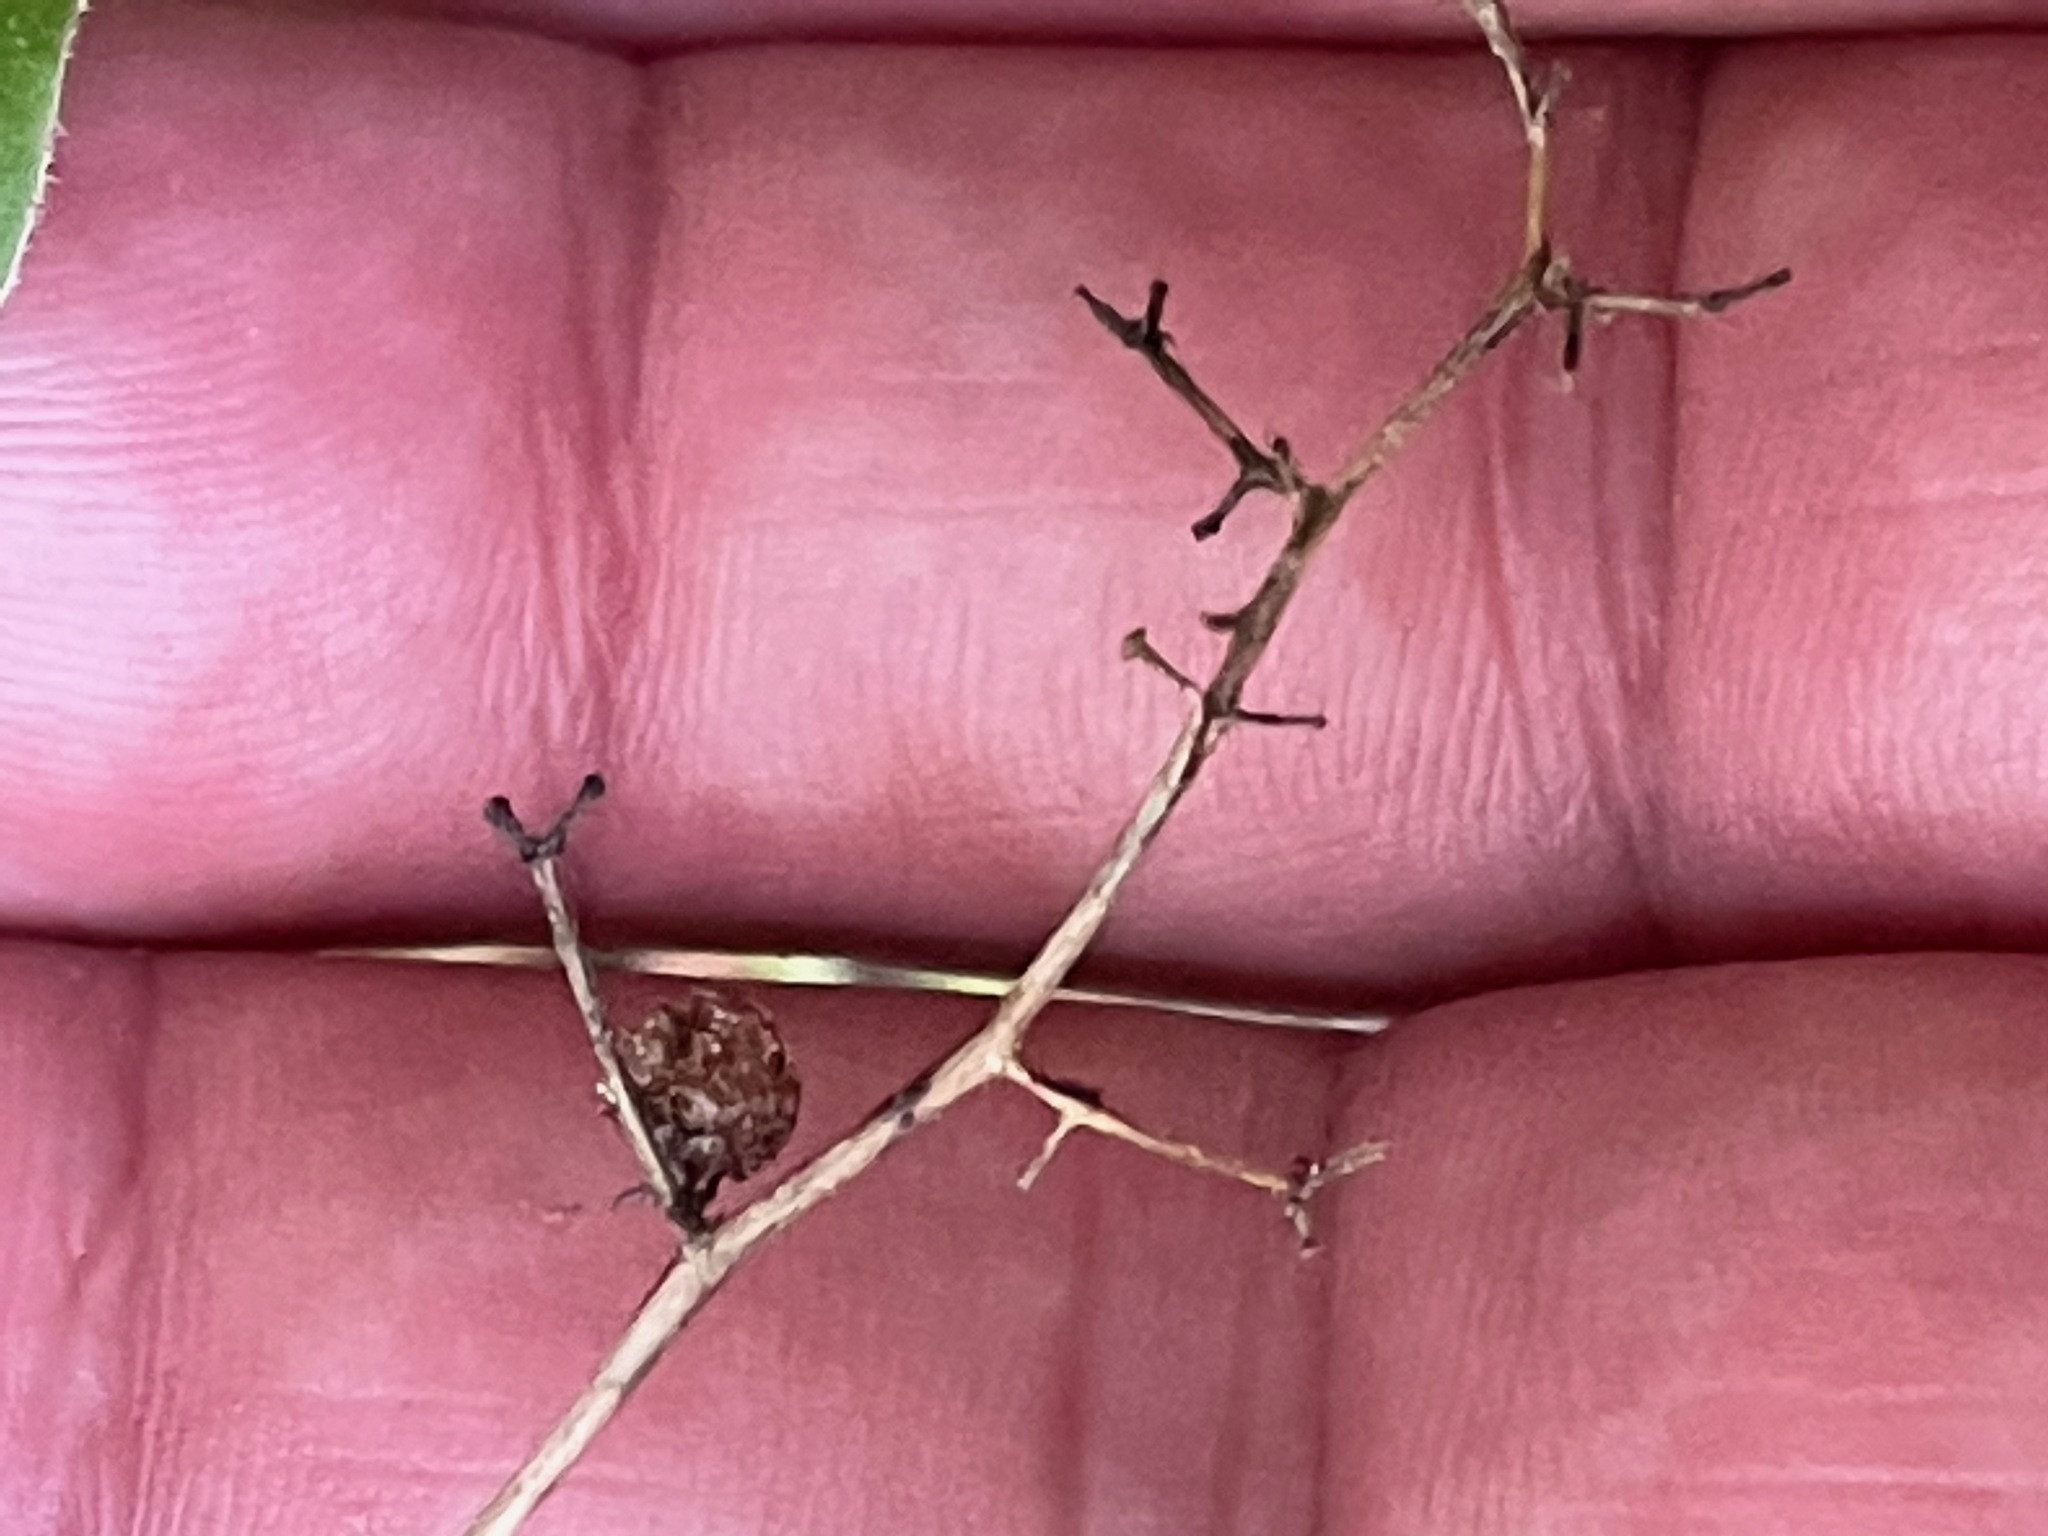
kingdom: Plantae
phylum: Tracheophyta
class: Liliopsida
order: Asparagales
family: Asparagaceae
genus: Maianthemum
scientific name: Maianthemum racemosum
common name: False spikenard
